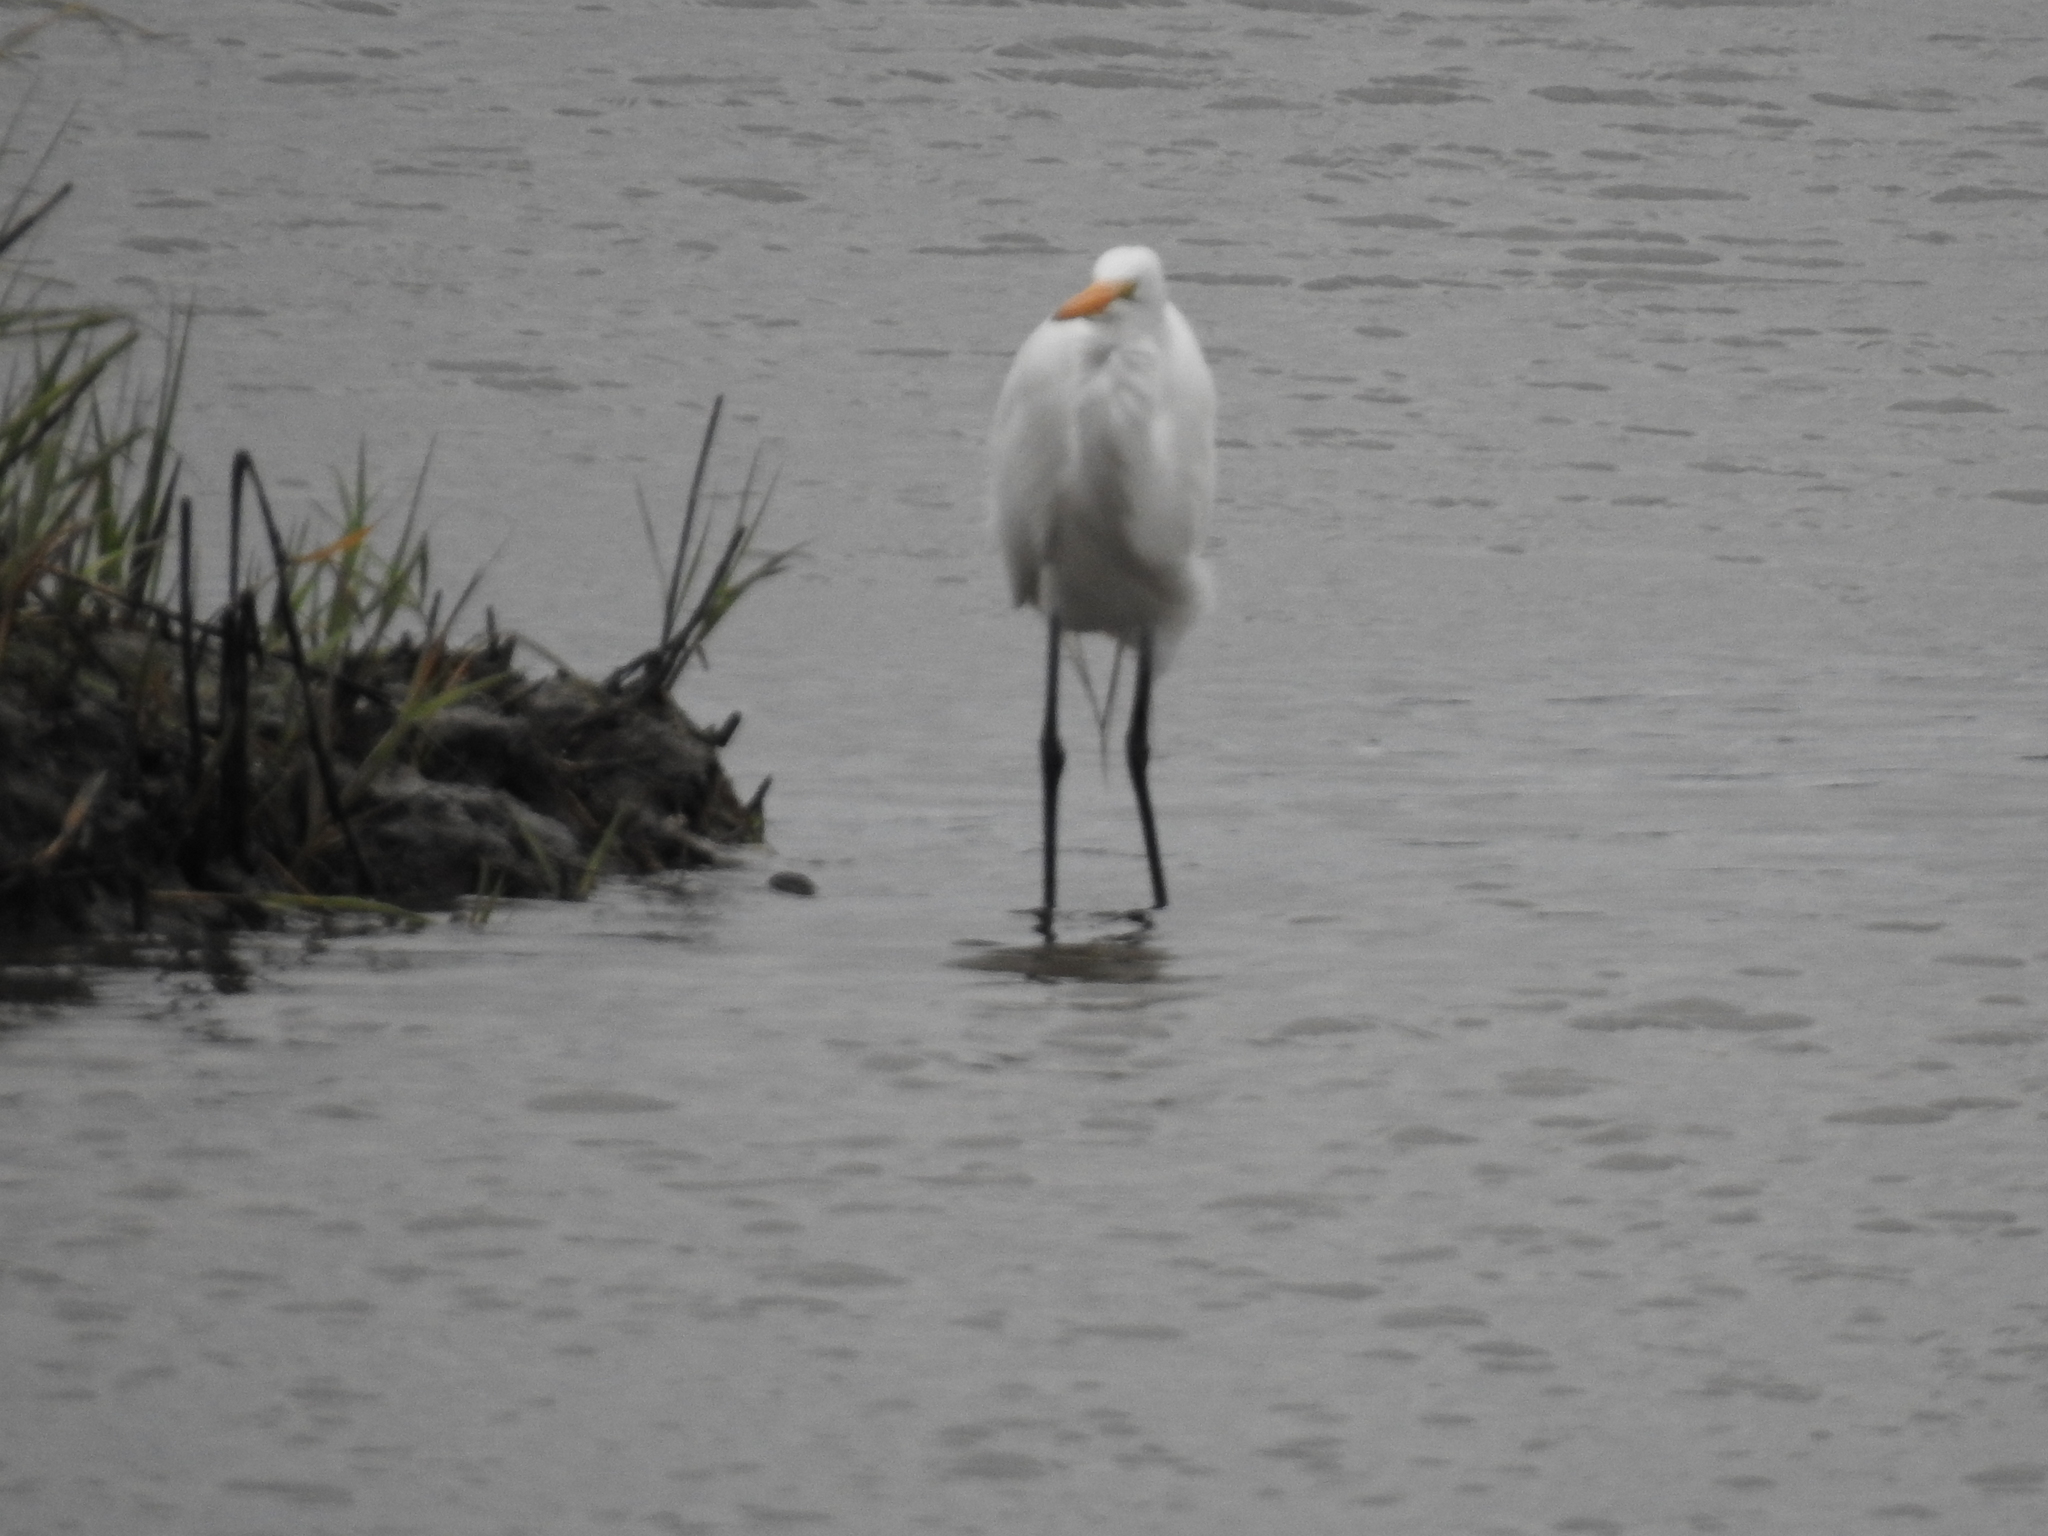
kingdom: Animalia
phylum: Chordata
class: Aves
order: Pelecaniformes
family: Ardeidae
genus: Ardea
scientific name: Ardea alba
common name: Great egret
